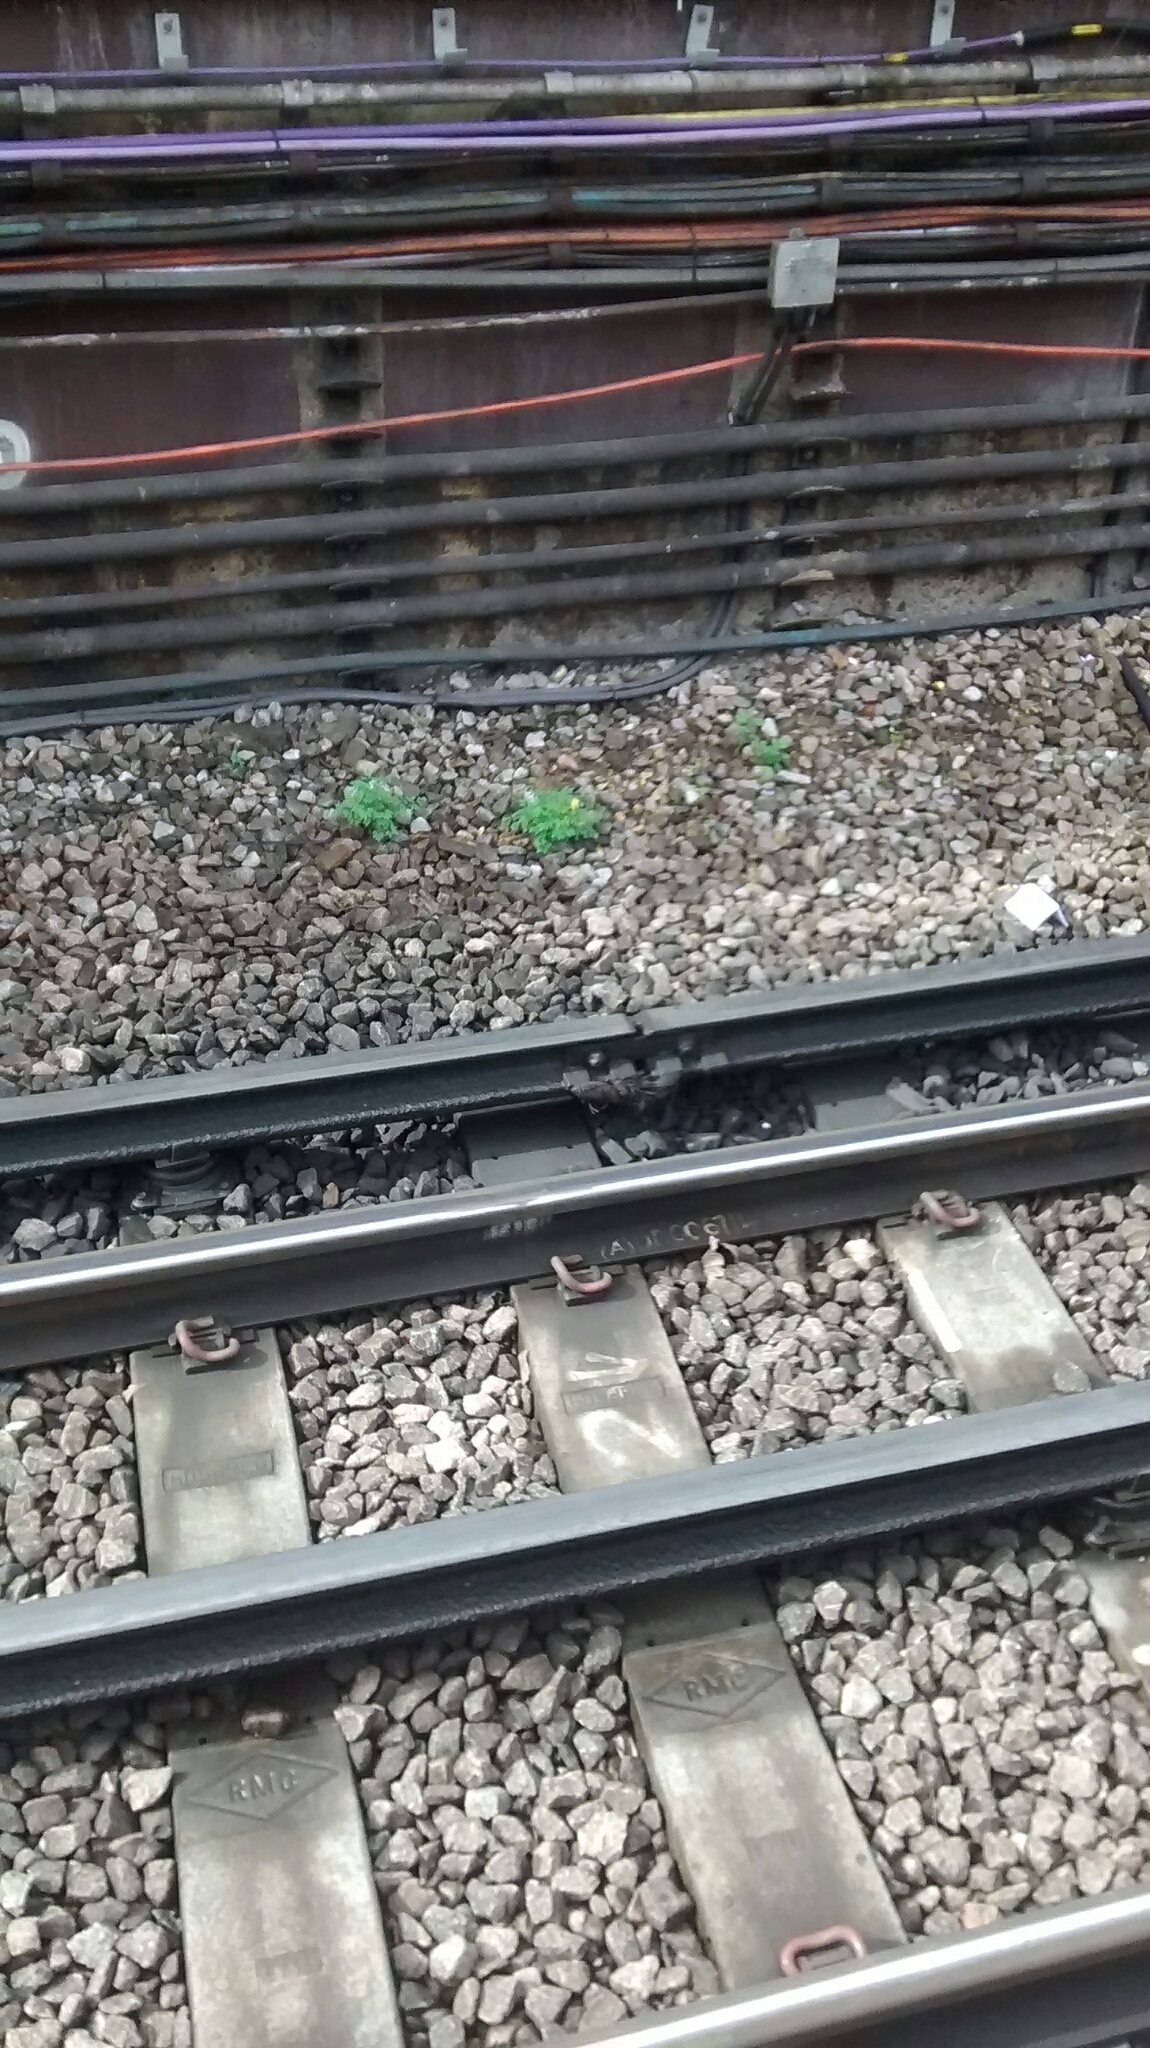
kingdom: Plantae
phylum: Tracheophyta
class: Magnoliopsida
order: Ranunculales
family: Papaveraceae
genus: Pseudofumaria
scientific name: Pseudofumaria lutea
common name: Yellow corydalis
